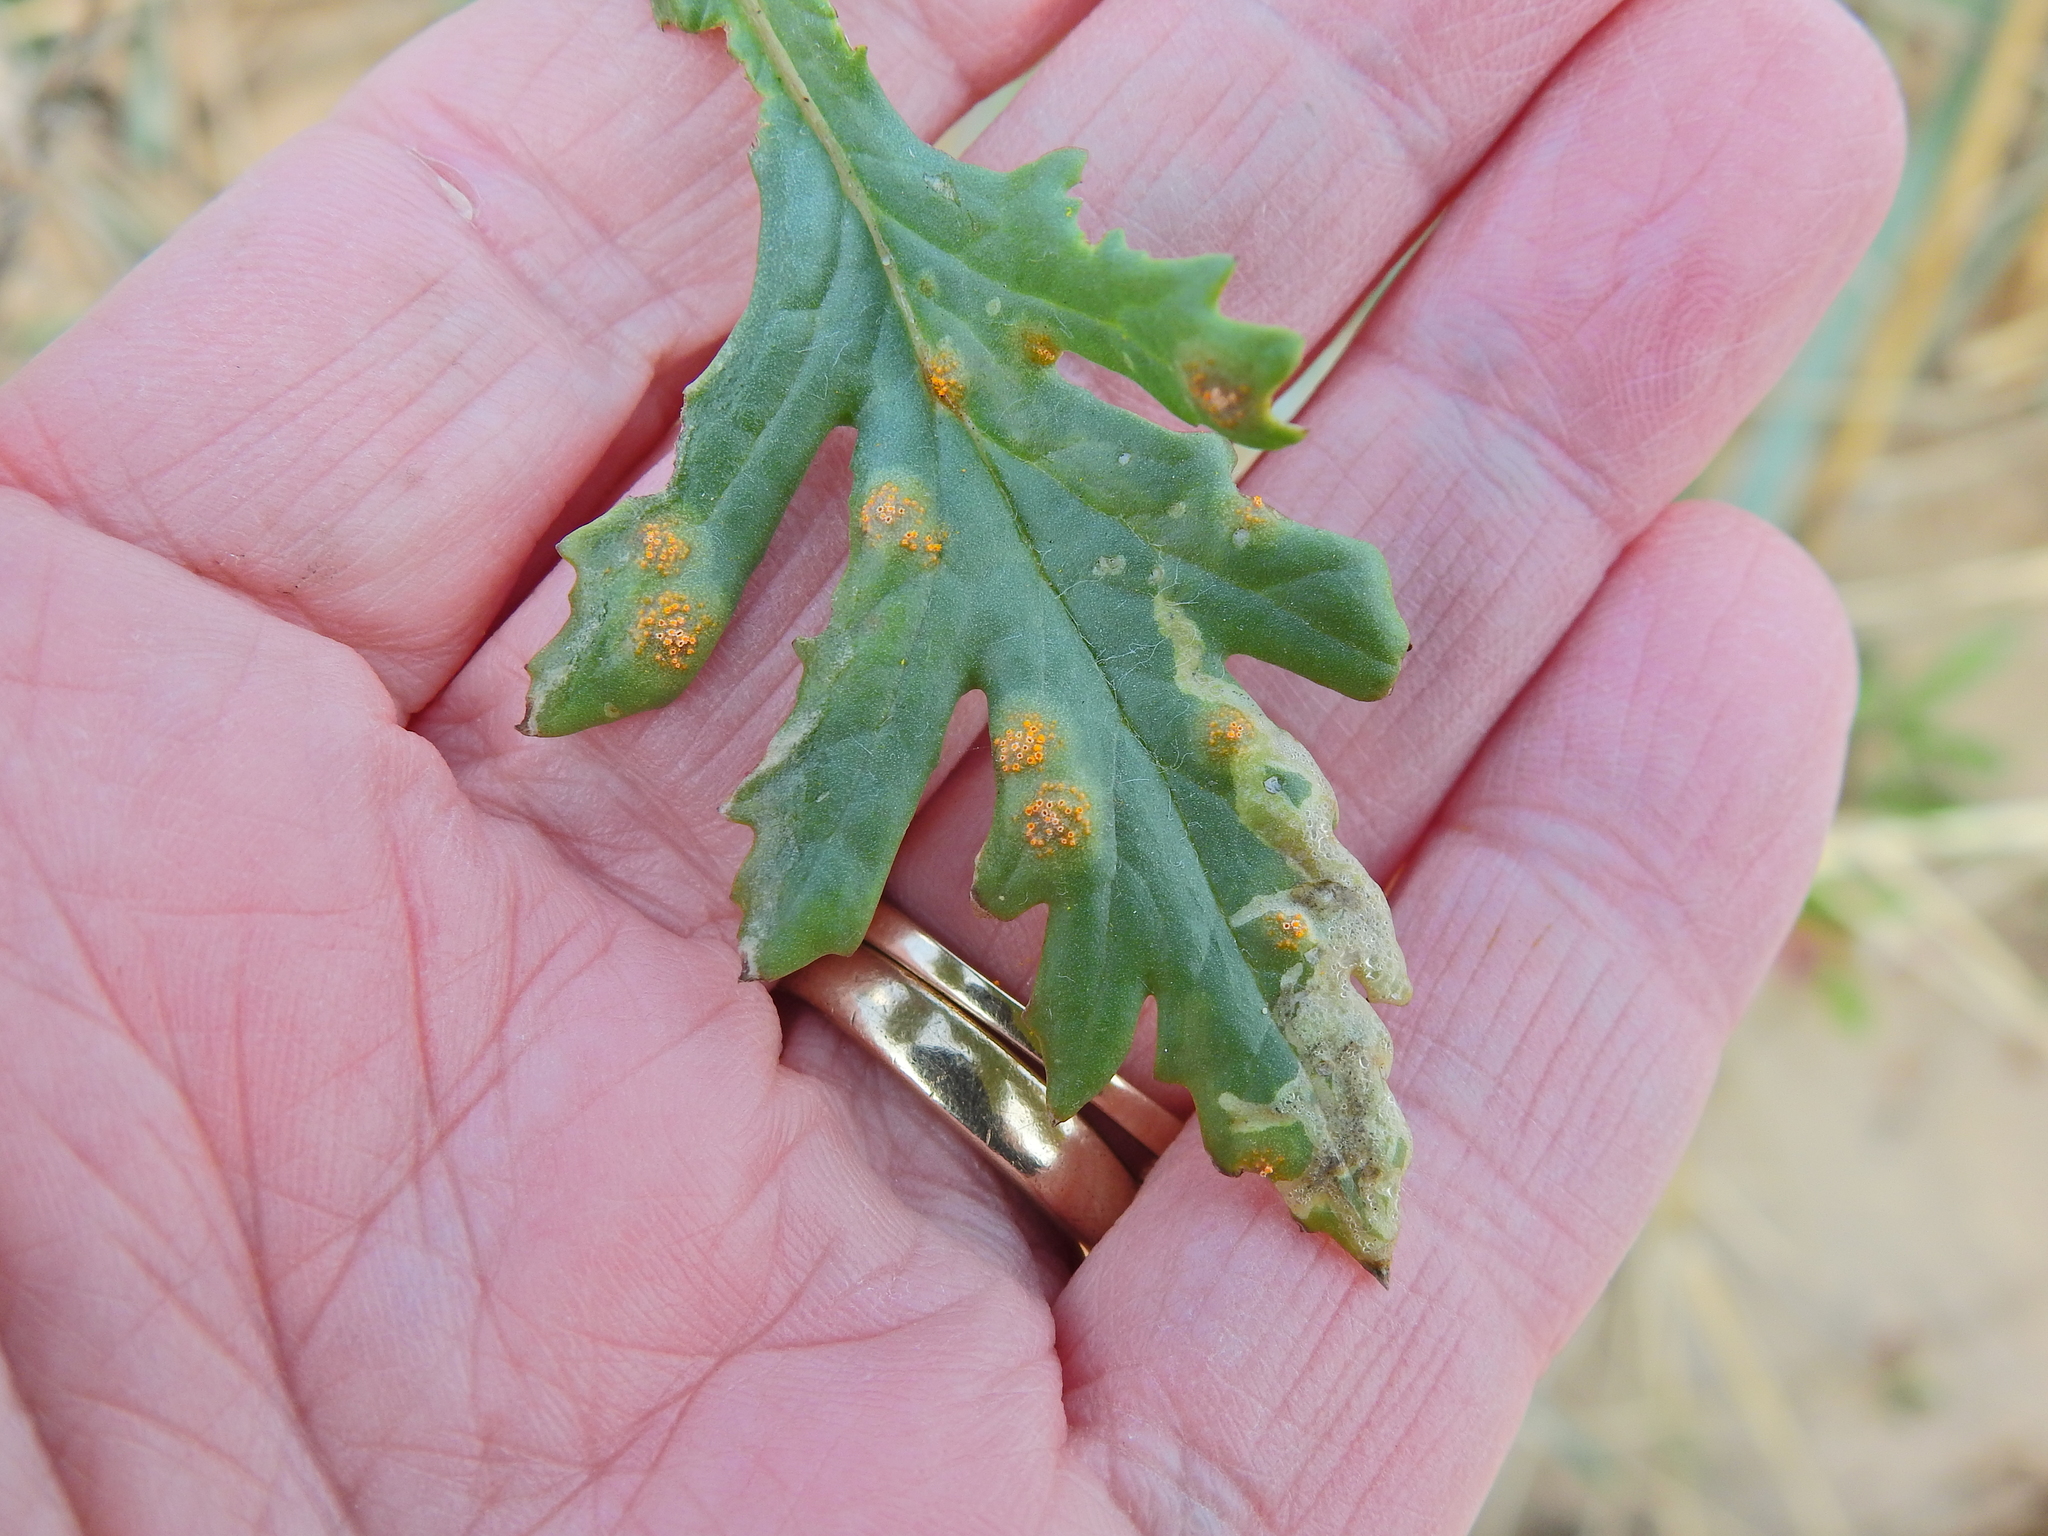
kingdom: Fungi
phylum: Basidiomycota
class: Pucciniomycetes
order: Pucciniales
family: Pucciniaceae
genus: Puccinia
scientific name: Puccinia lagenophorae
